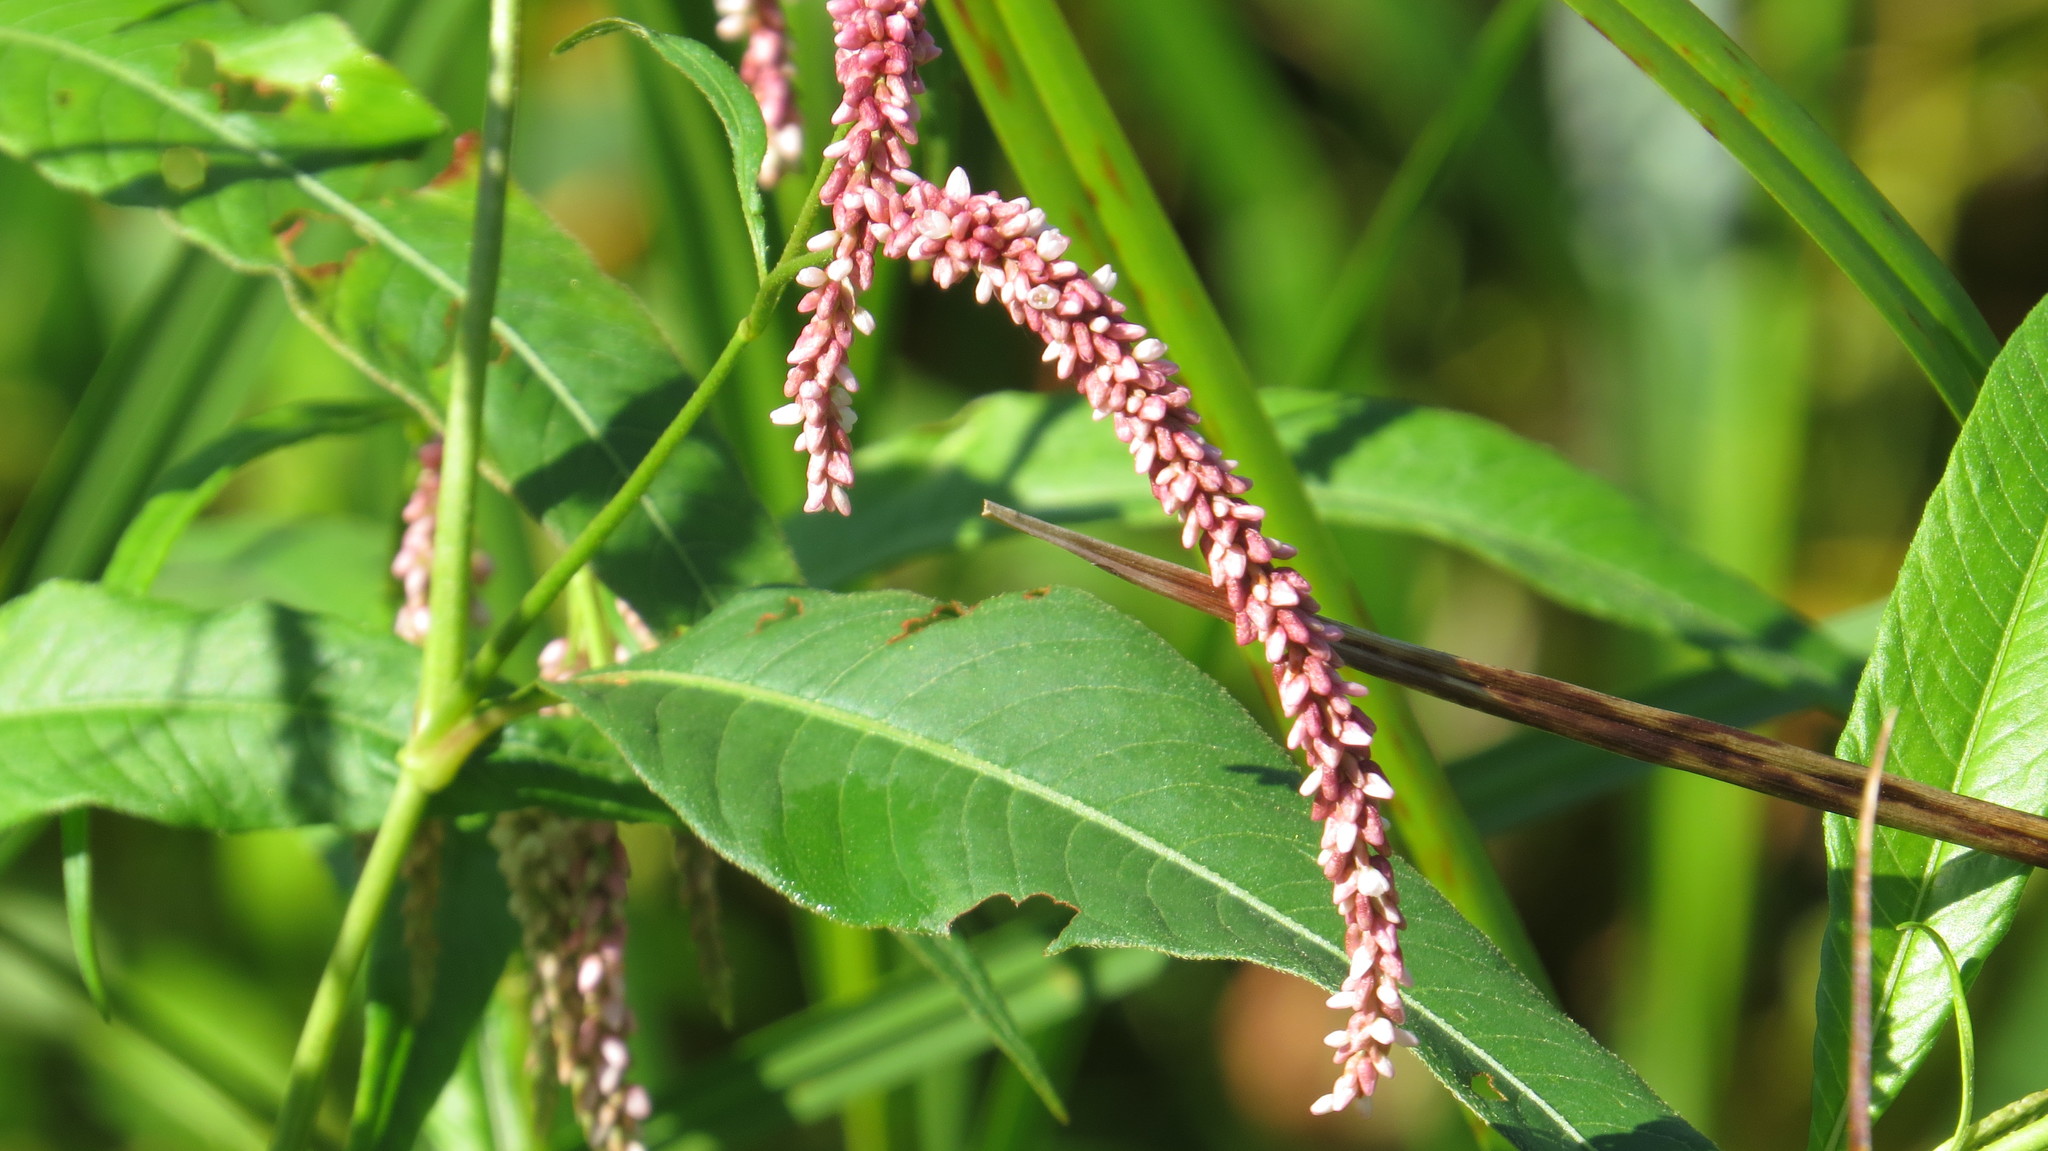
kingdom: Plantae
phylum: Tracheophyta
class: Magnoliopsida
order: Caryophyllales
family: Polygonaceae
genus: Persicaria
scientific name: Persicaria lapathifolia
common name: Curlytop knotweed
